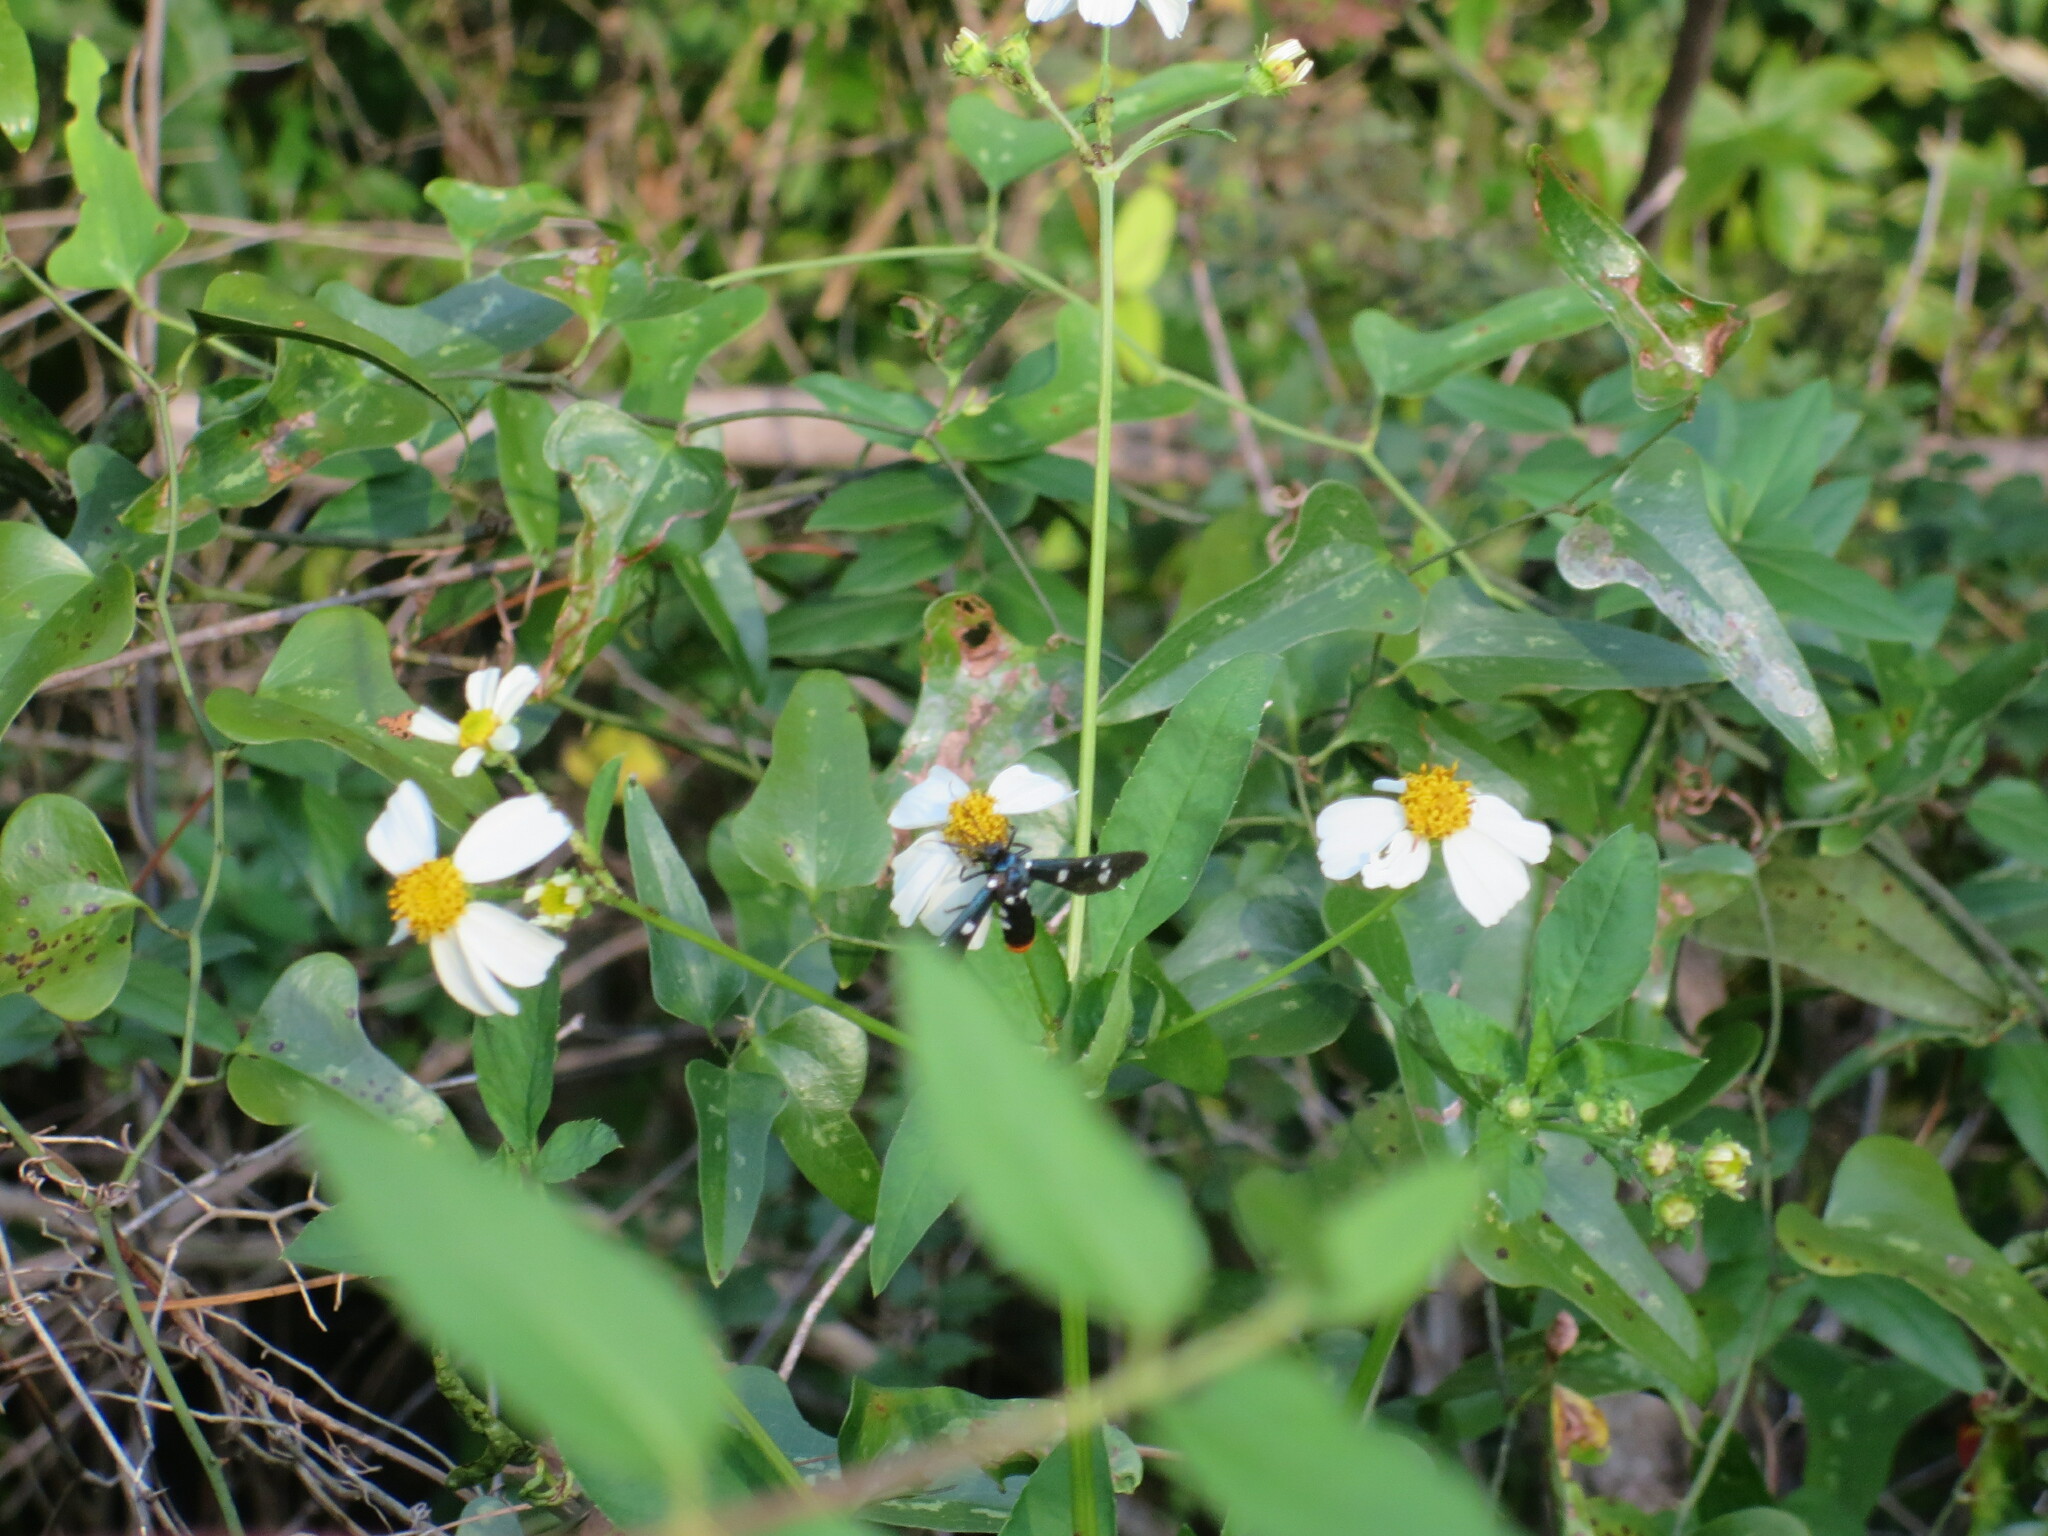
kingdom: Animalia
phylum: Arthropoda
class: Insecta
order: Lepidoptera
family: Erebidae
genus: Syntomeida
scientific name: Syntomeida epilais
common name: Polka-dot wasp moth
